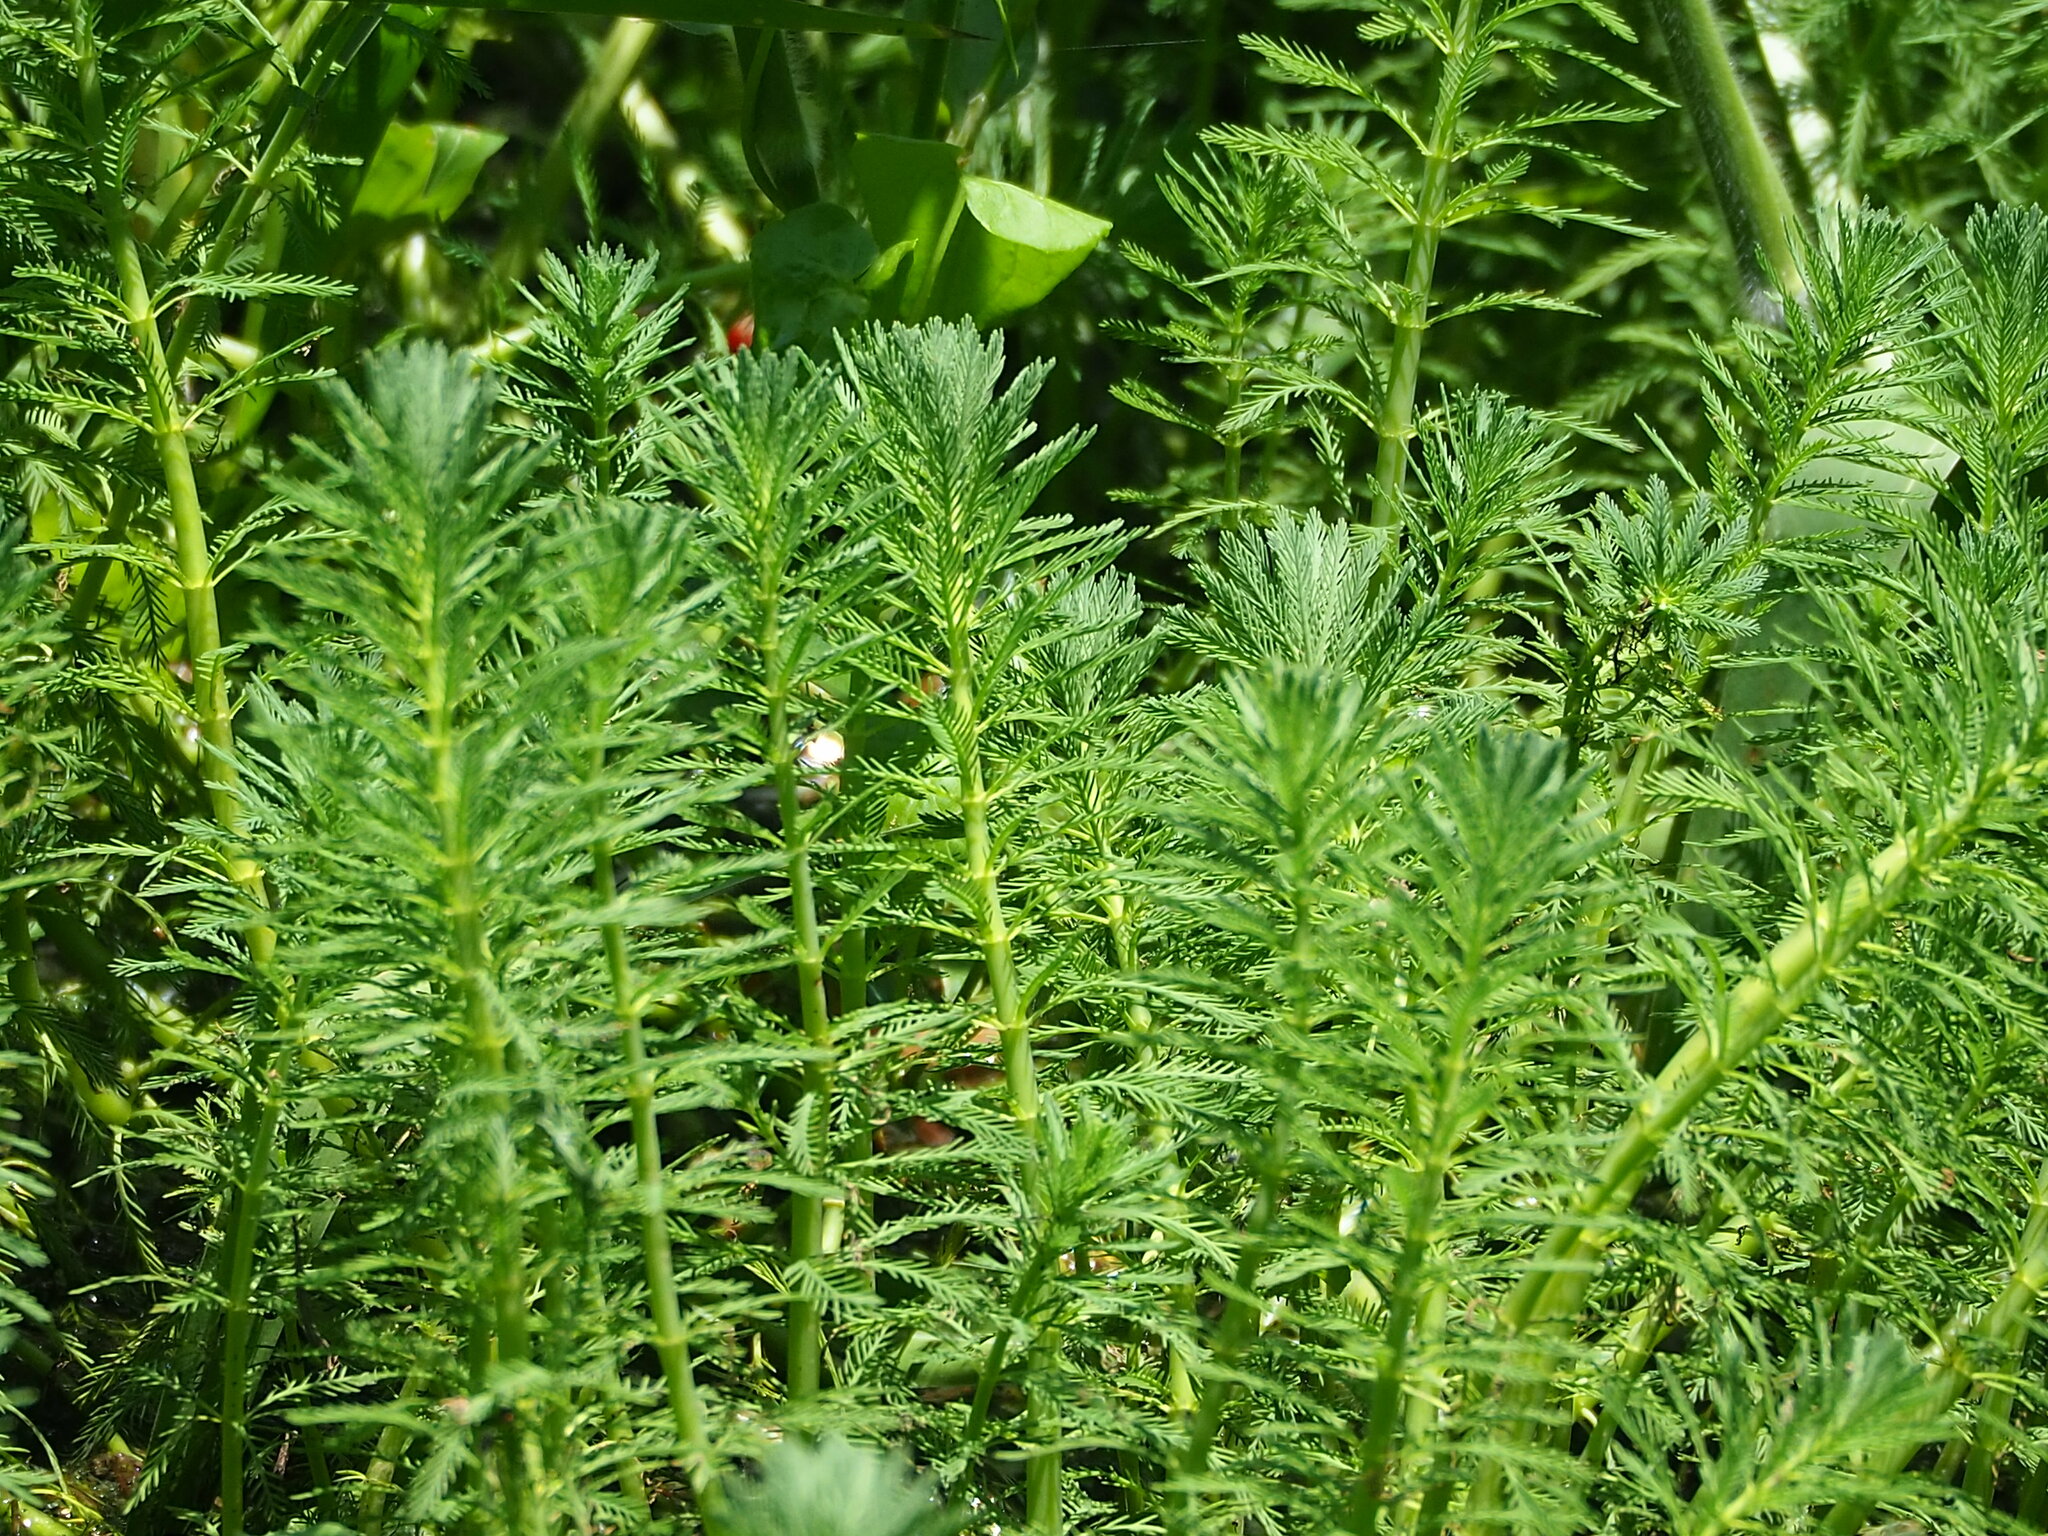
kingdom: Plantae
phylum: Tracheophyta
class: Magnoliopsida
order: Saxifragales
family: Haloragaceae
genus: Myriophyllum
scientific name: Myriophyllum aquaticum
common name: Parrot's feather
